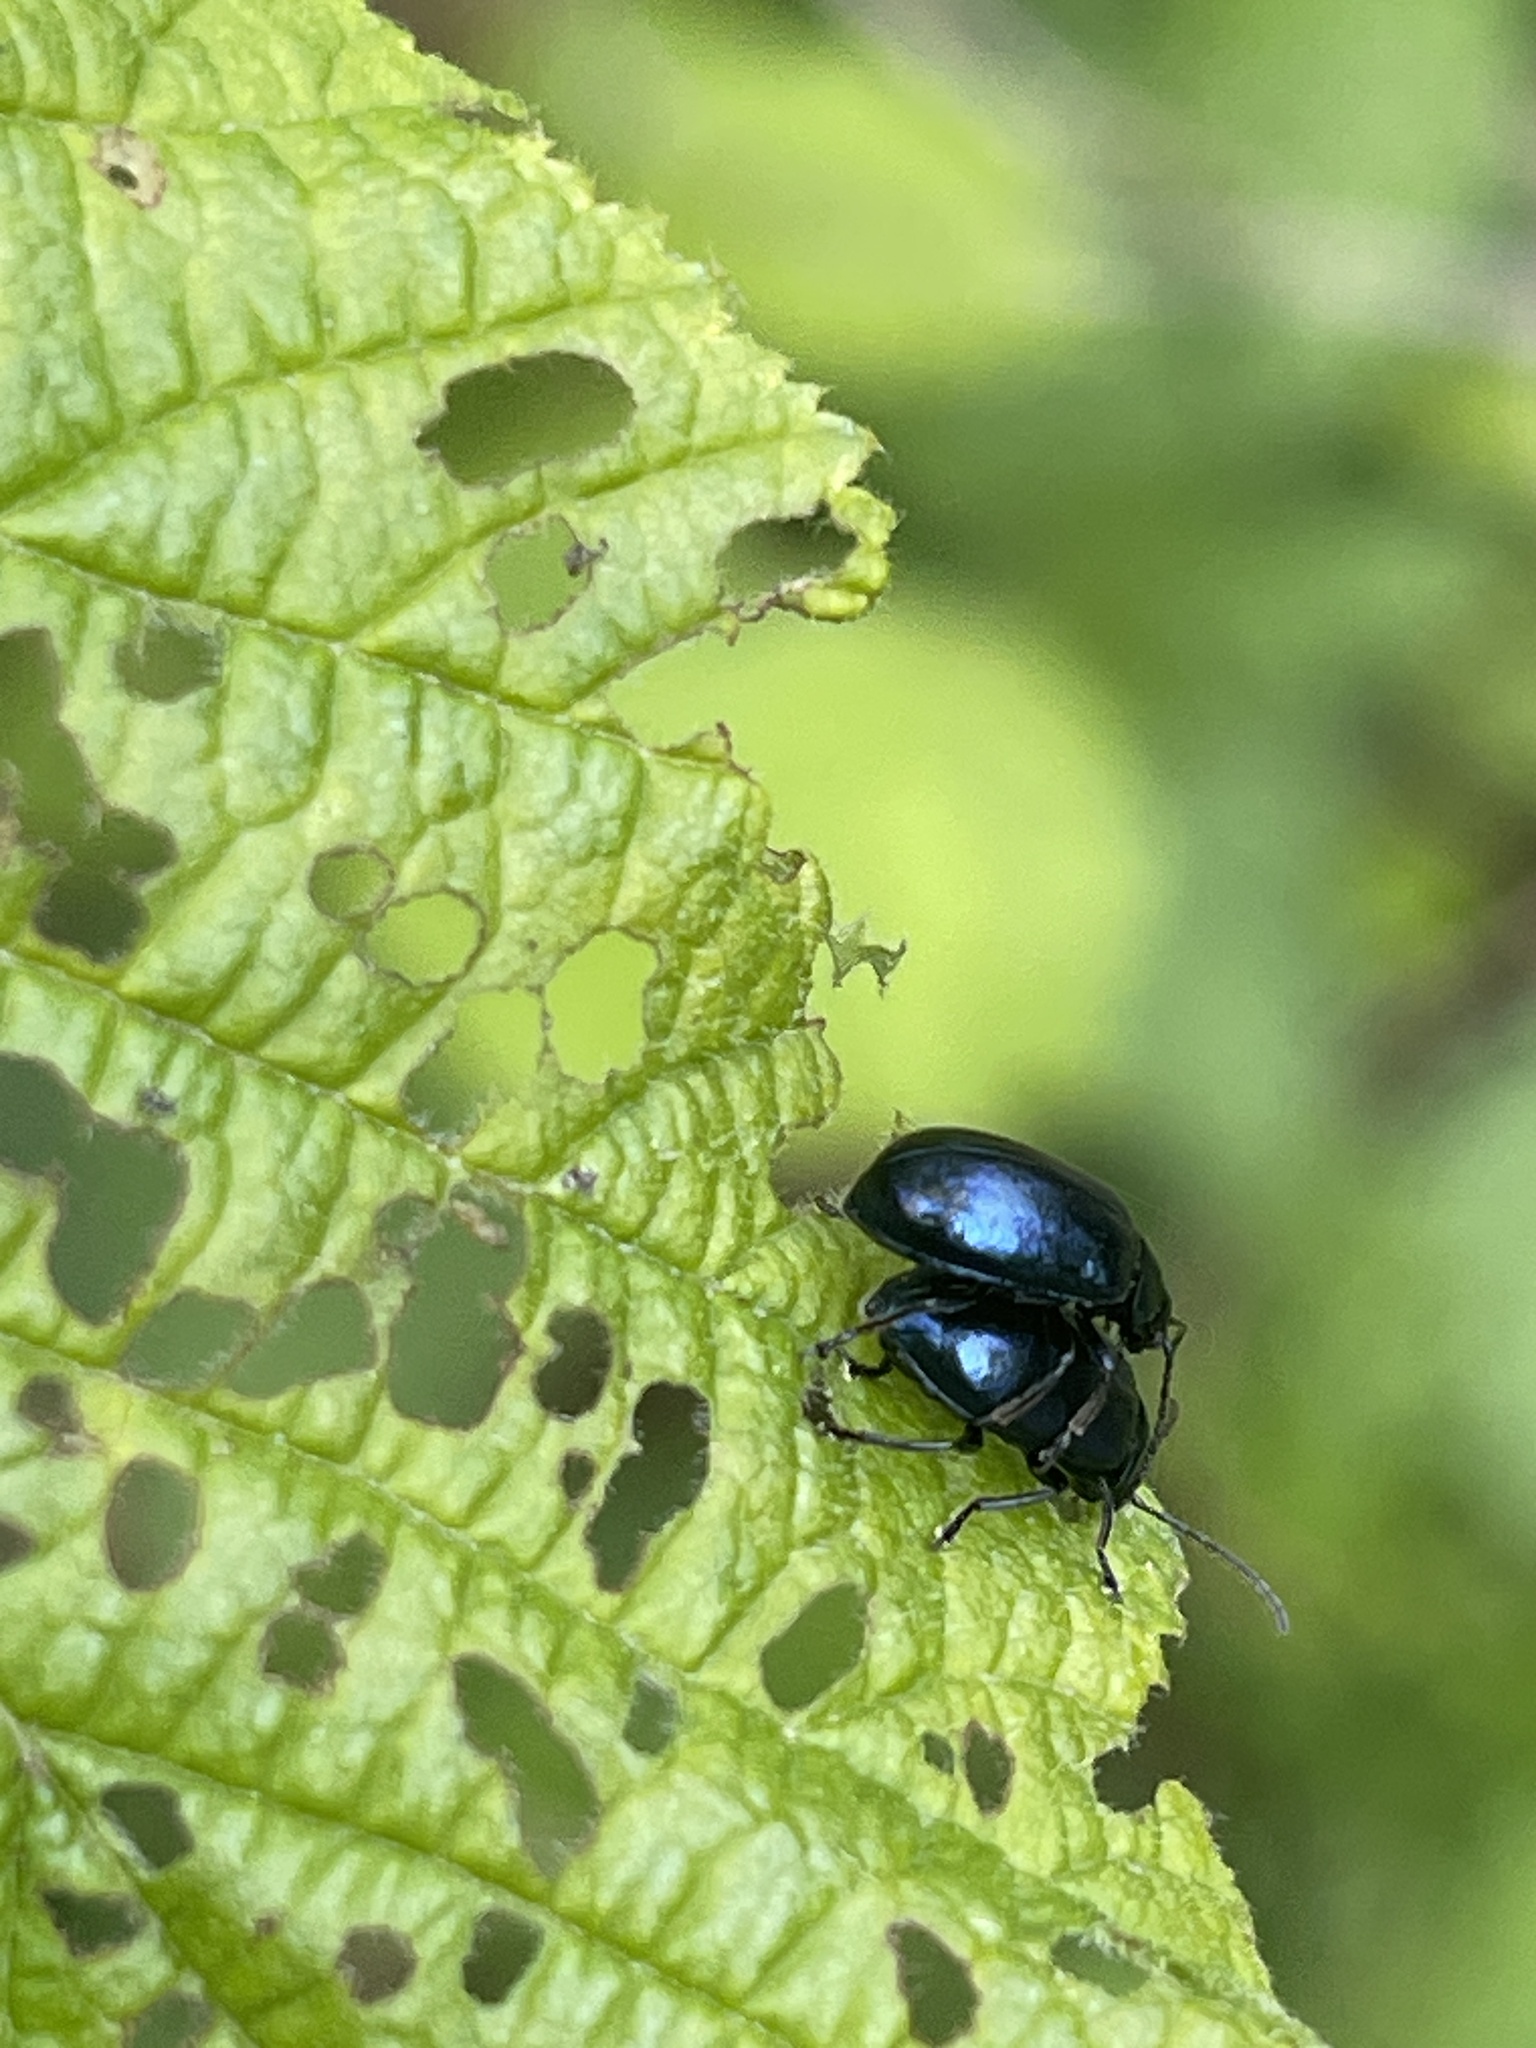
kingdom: Animalia
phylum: Arthropoda
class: Insecta
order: Coleoptera
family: Chrysomelidae
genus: Agelastica
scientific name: Agelastica alni
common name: Alder leaf beetle
